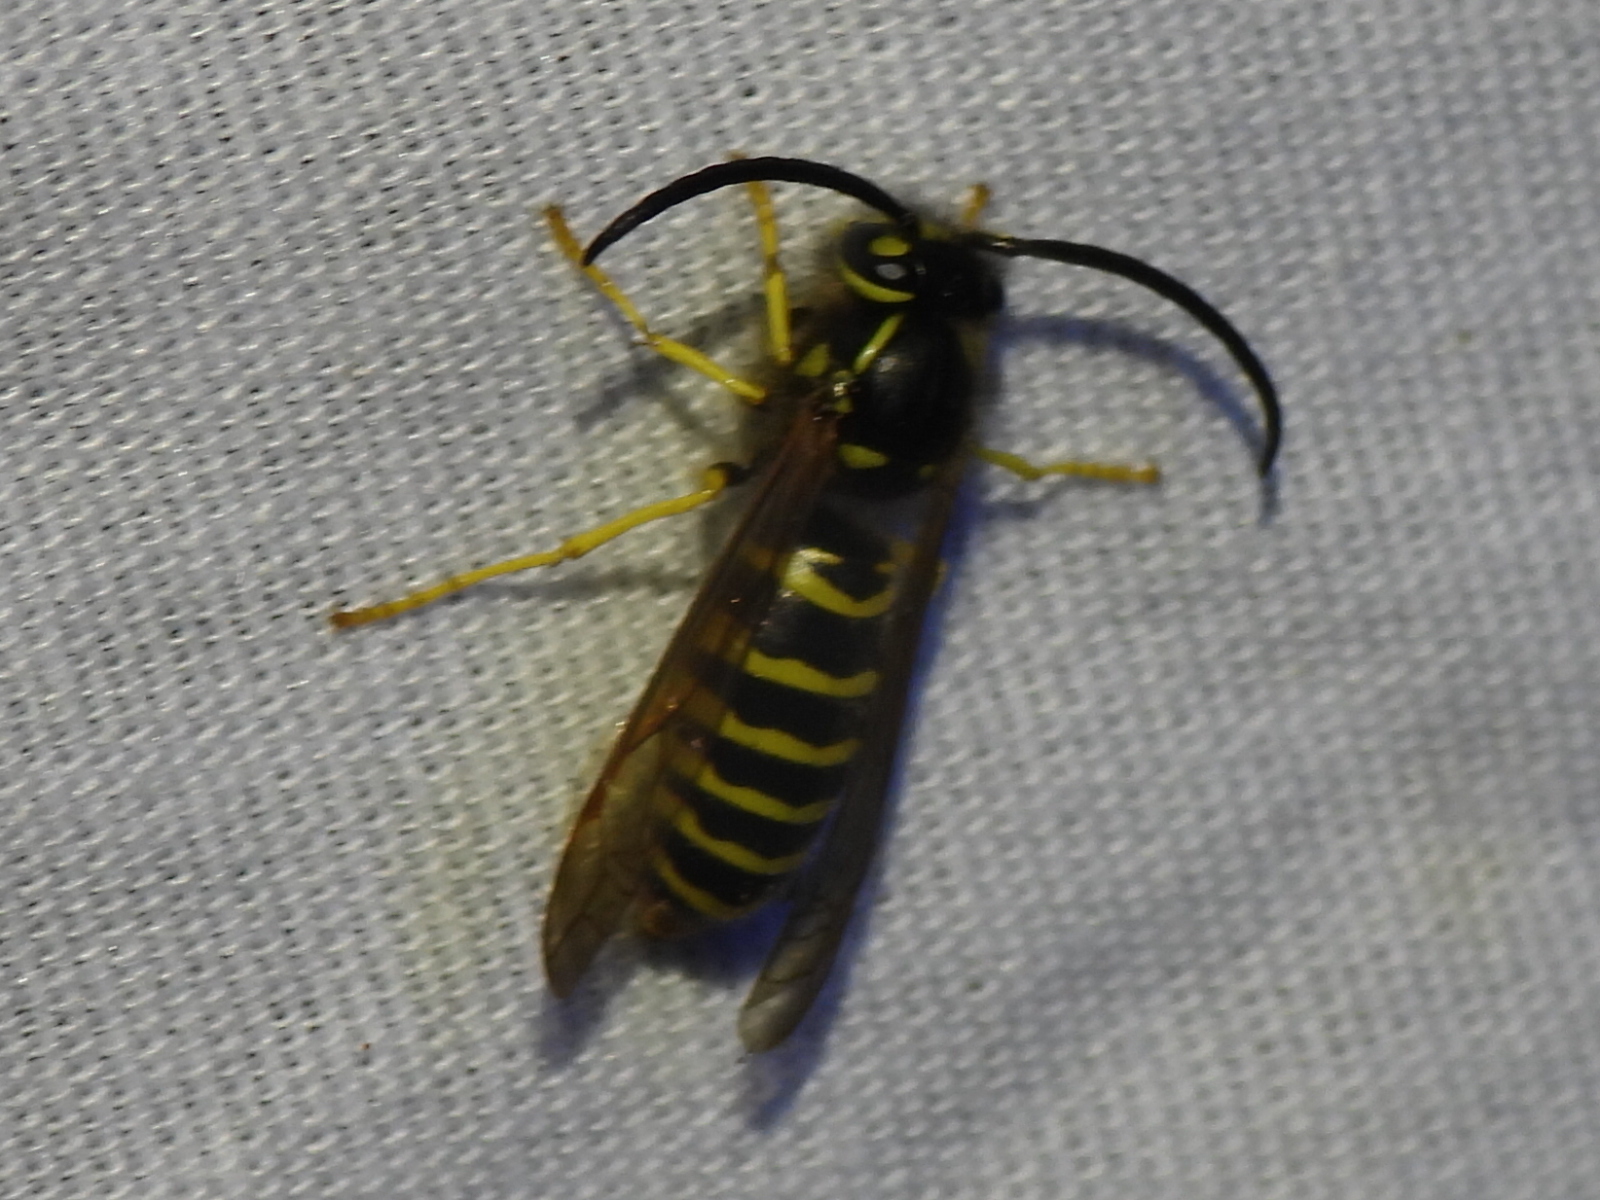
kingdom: Animalia
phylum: Arthropoda
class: Insecta
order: Hymenoptera
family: Vespidae
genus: Vespula
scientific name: Vespula maculifrons
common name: Eastern yellowjacket
